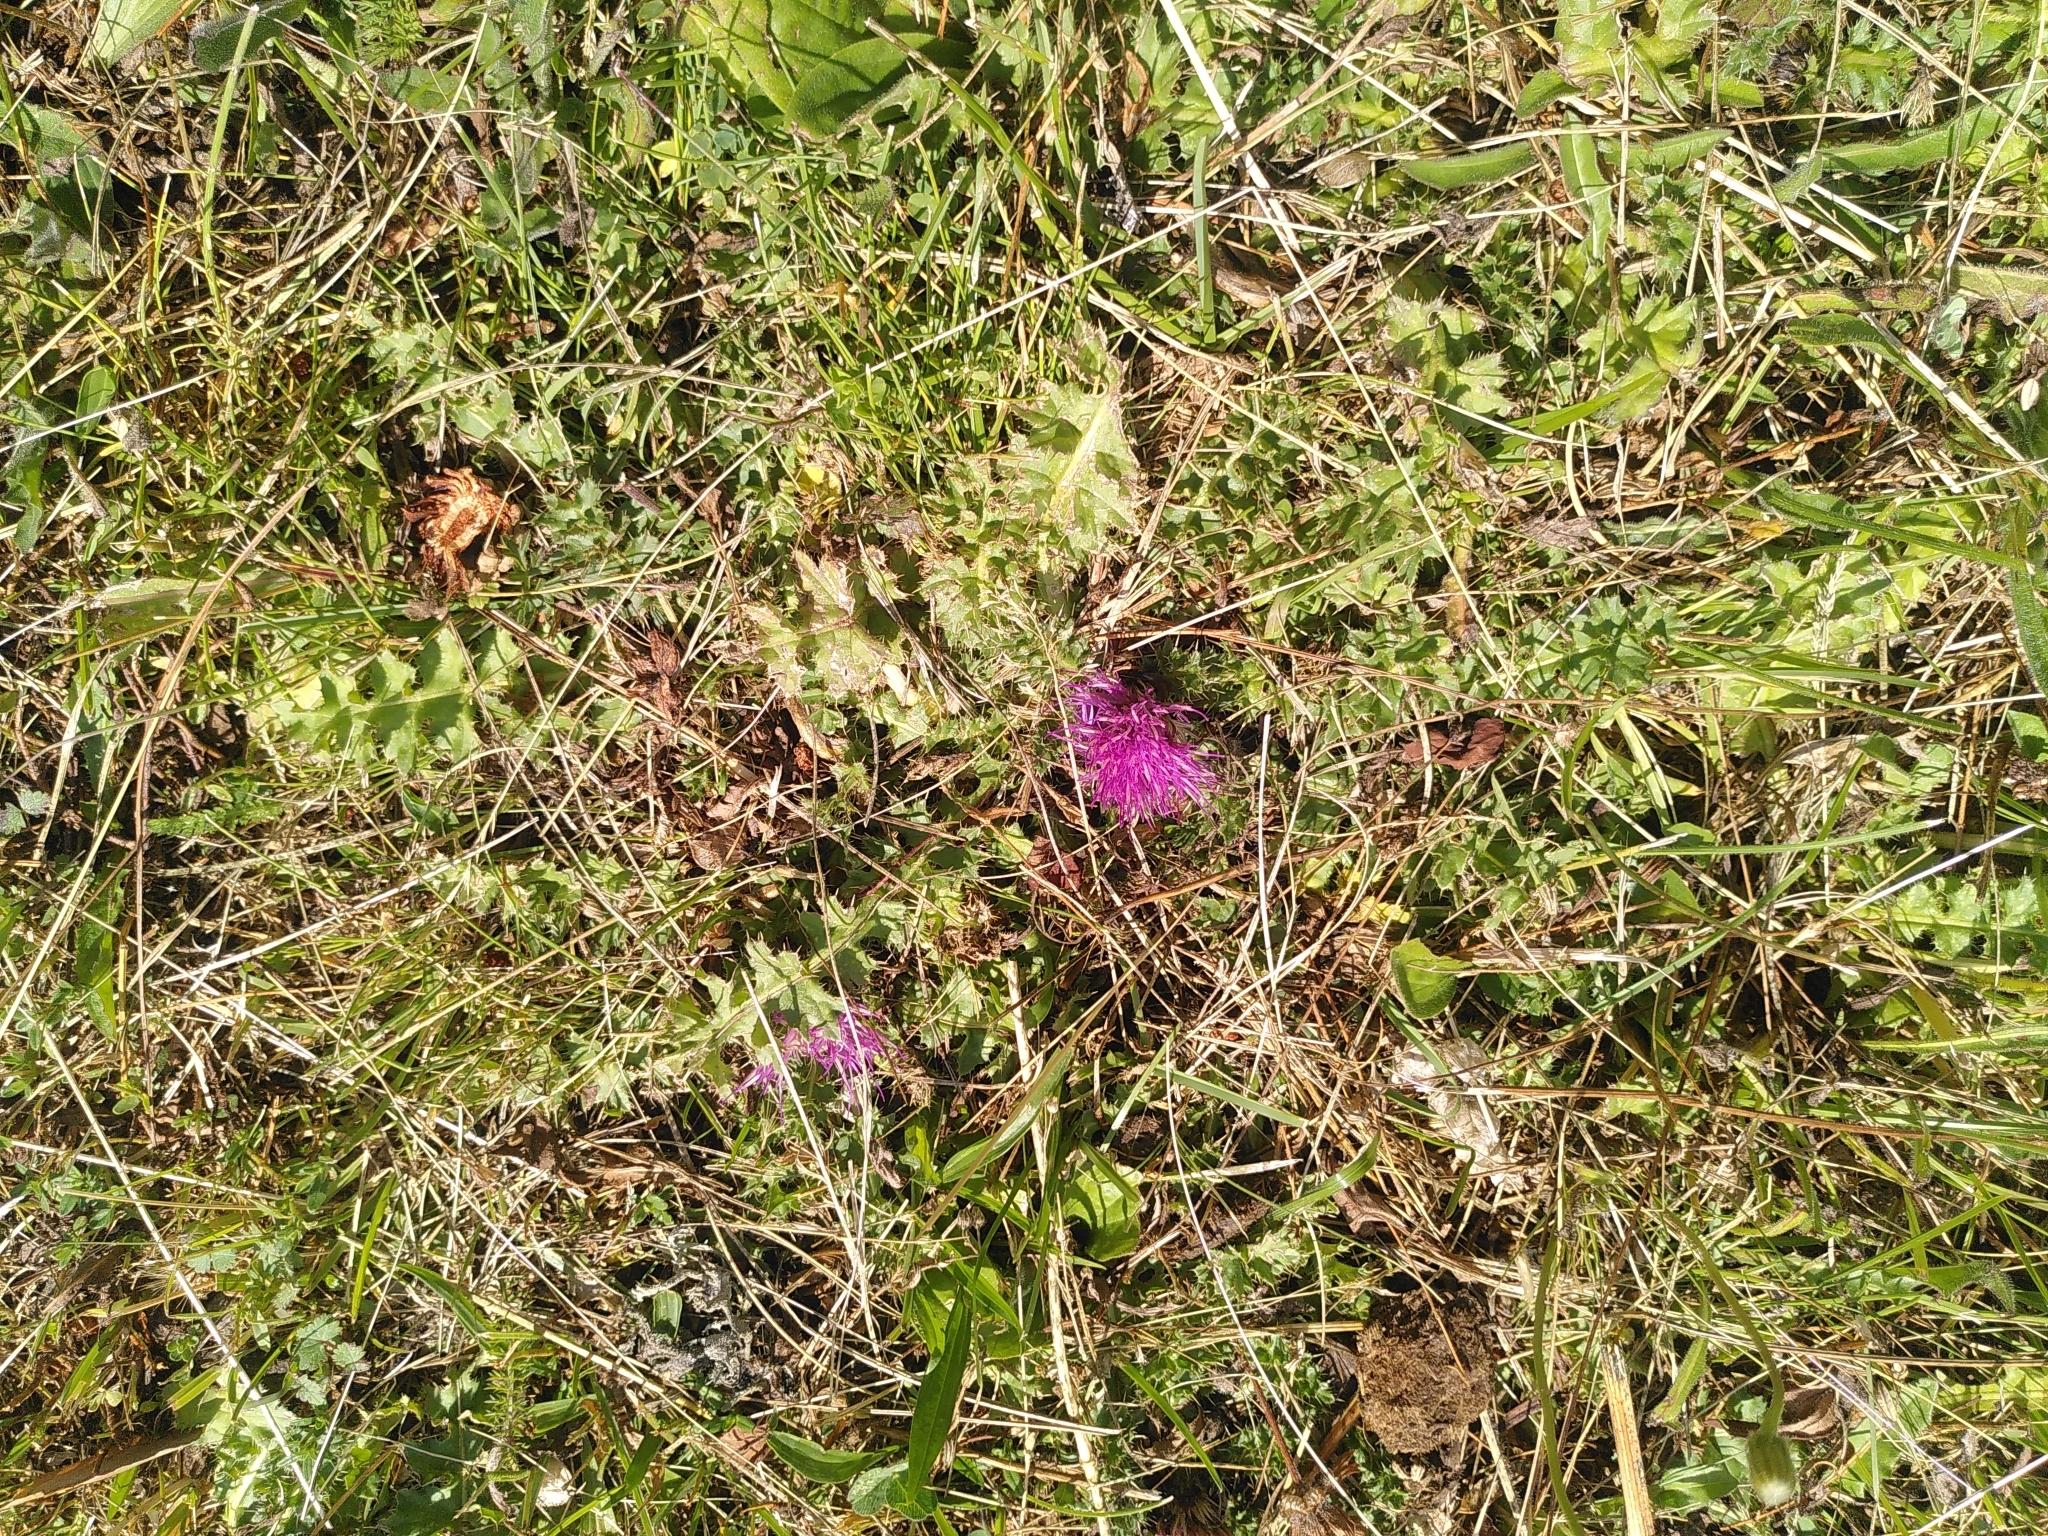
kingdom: Plantae
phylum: Tracheophyta
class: Magnoliopsida
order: Asterales
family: Asteraceae
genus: Cirsium
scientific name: Cirsium acaulon
